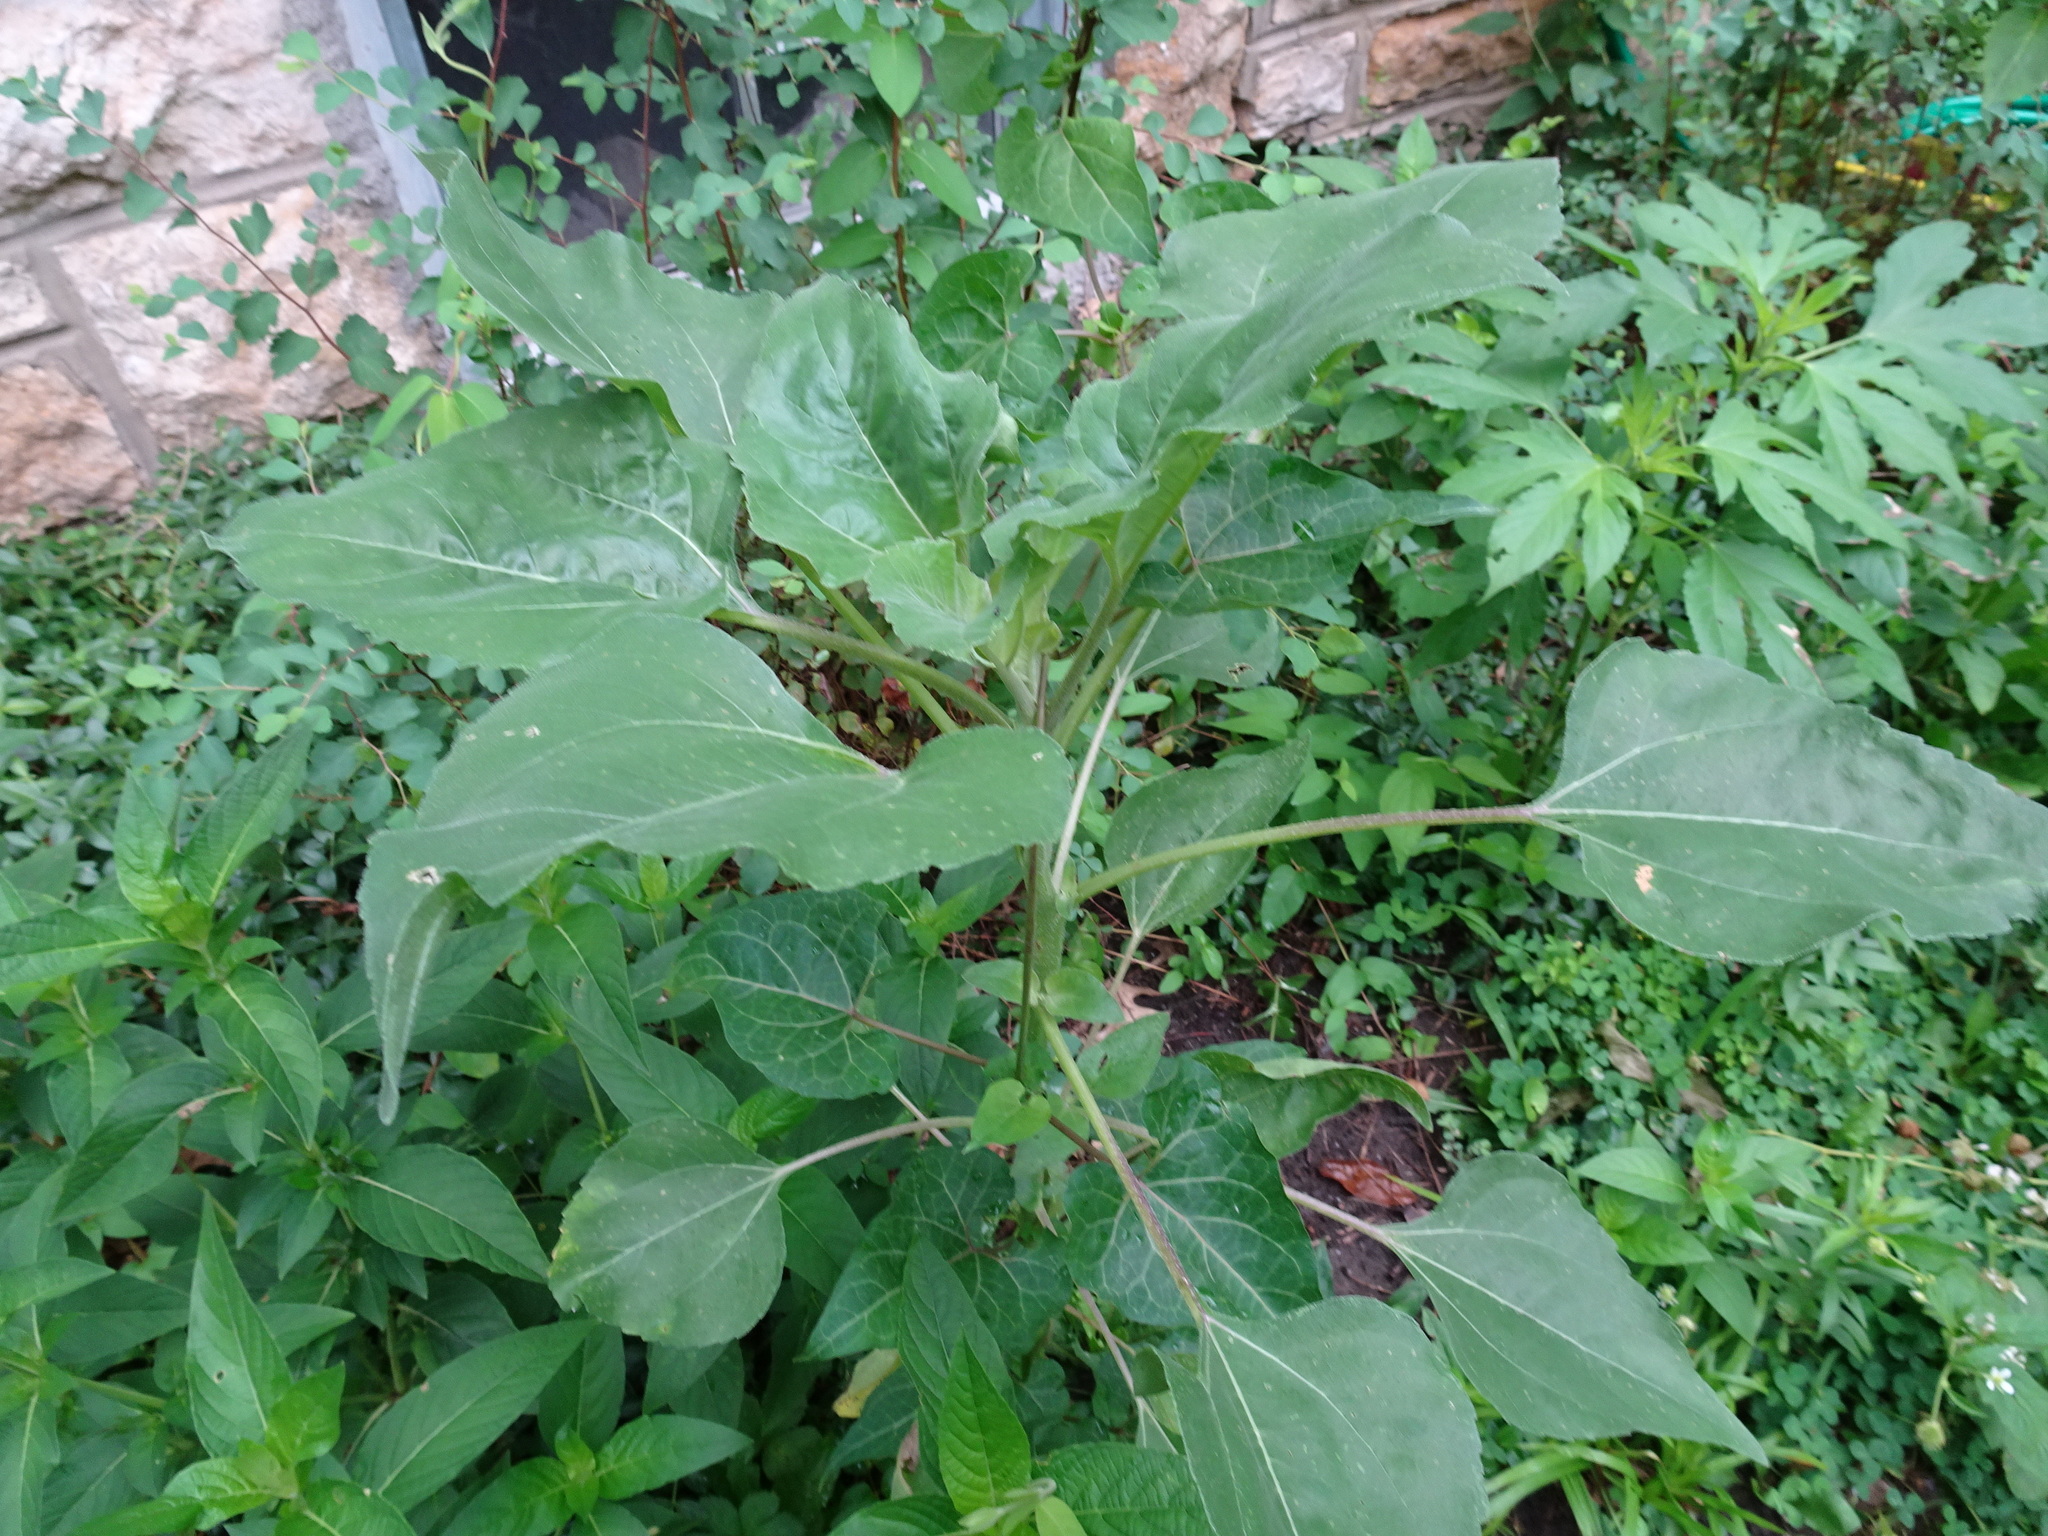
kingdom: Plantae
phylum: Tracheophyta
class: Magnoliopsida
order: Asterales
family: Asteraceae
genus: Helianthus
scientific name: Helianthus annuus
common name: Sunflower
